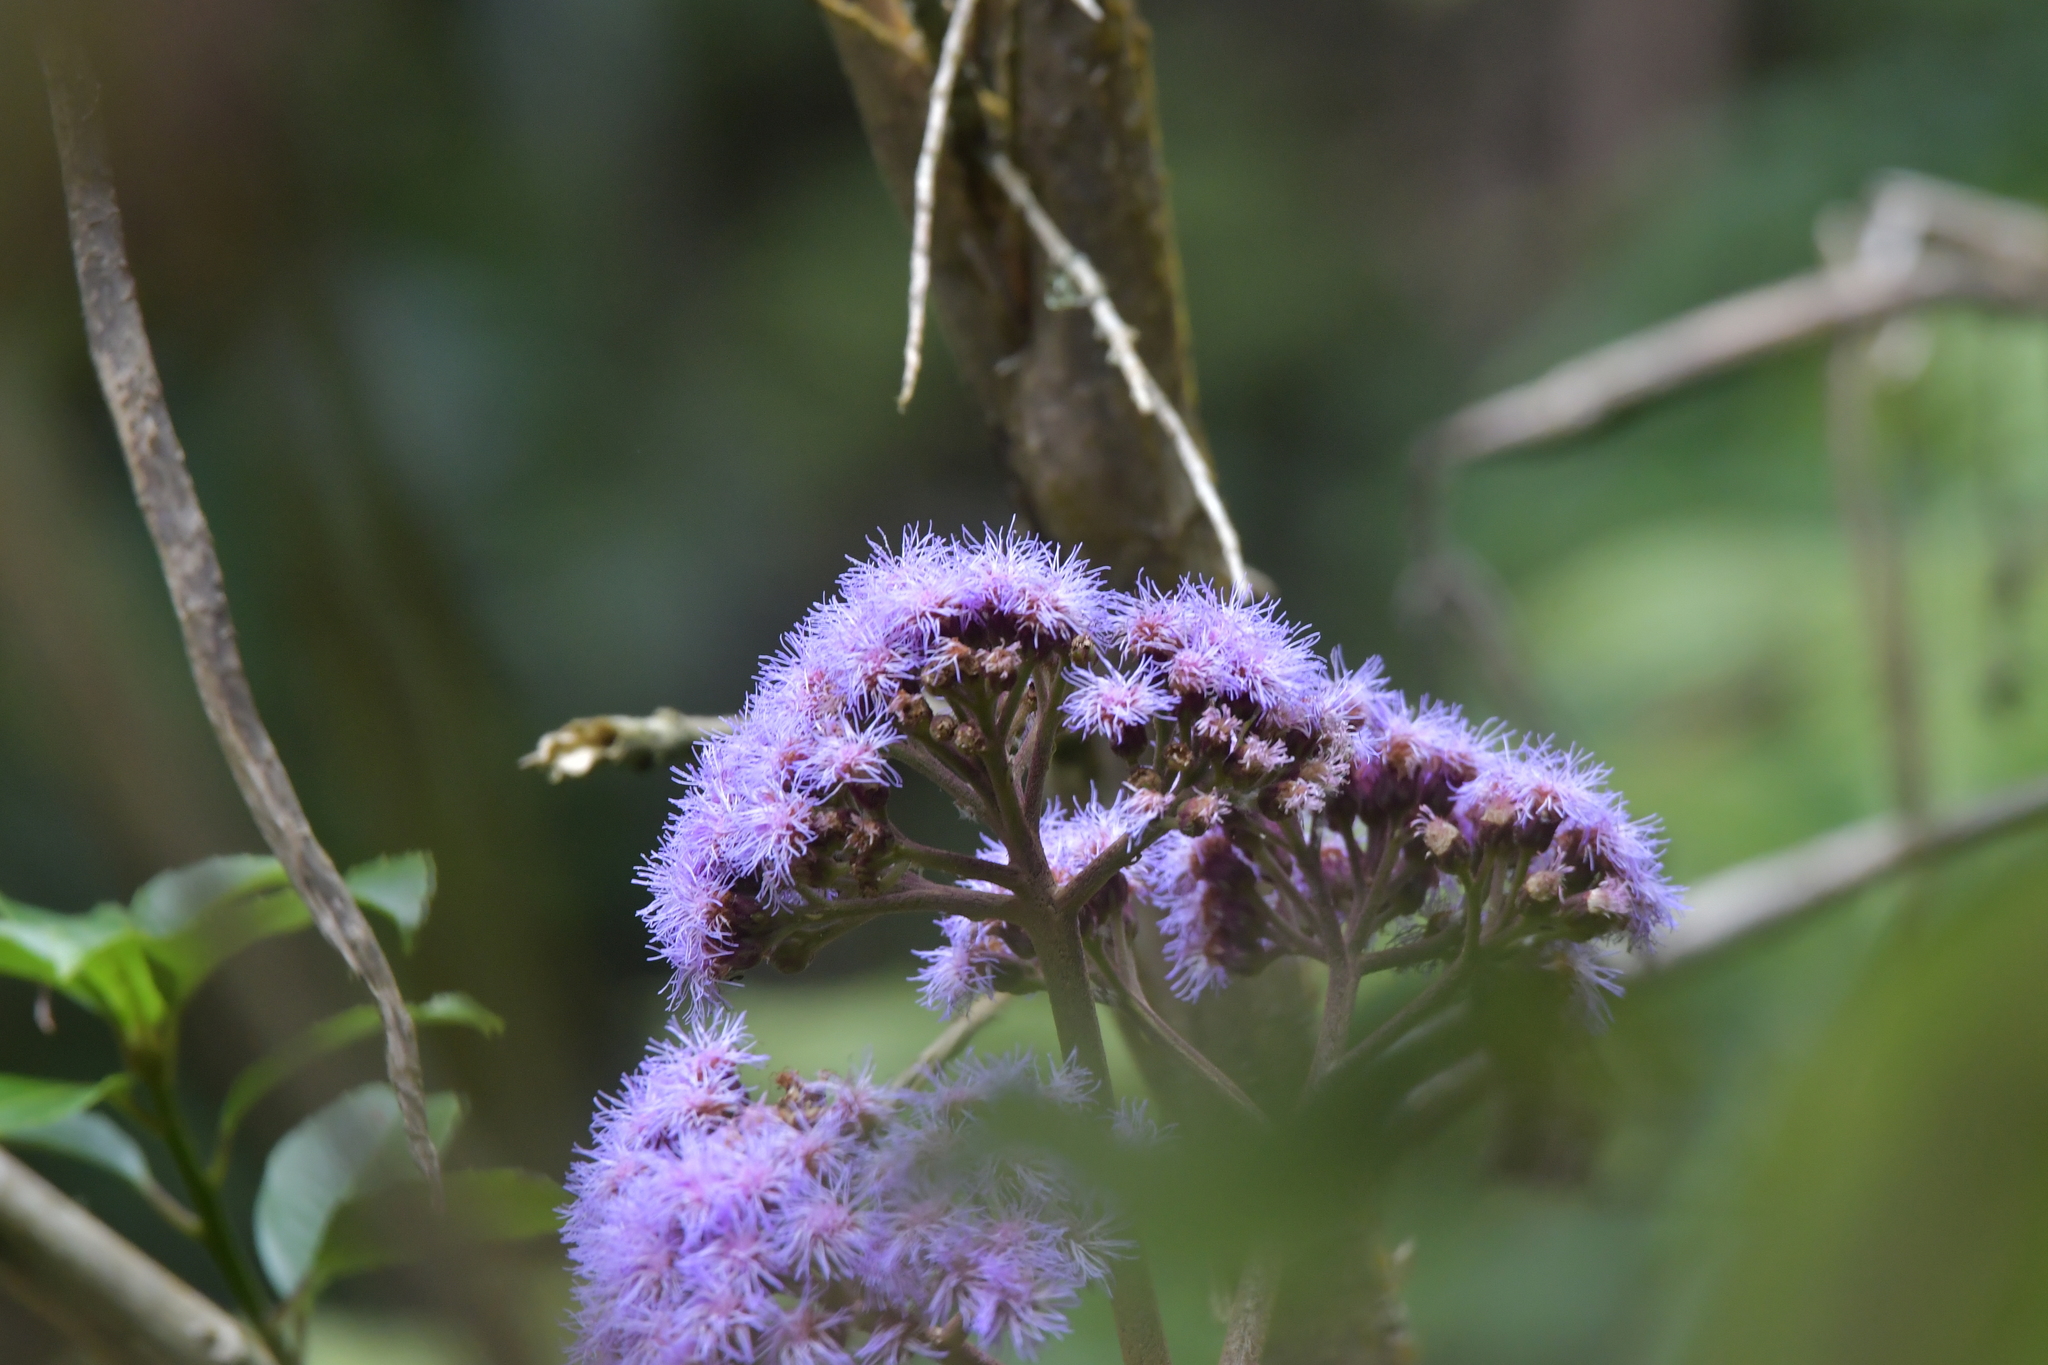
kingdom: Plantae
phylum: Tracheophyta
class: Magnoliopsida
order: Asterales
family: Asteraceae
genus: Bartlettina
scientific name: Bartlettina sordida
